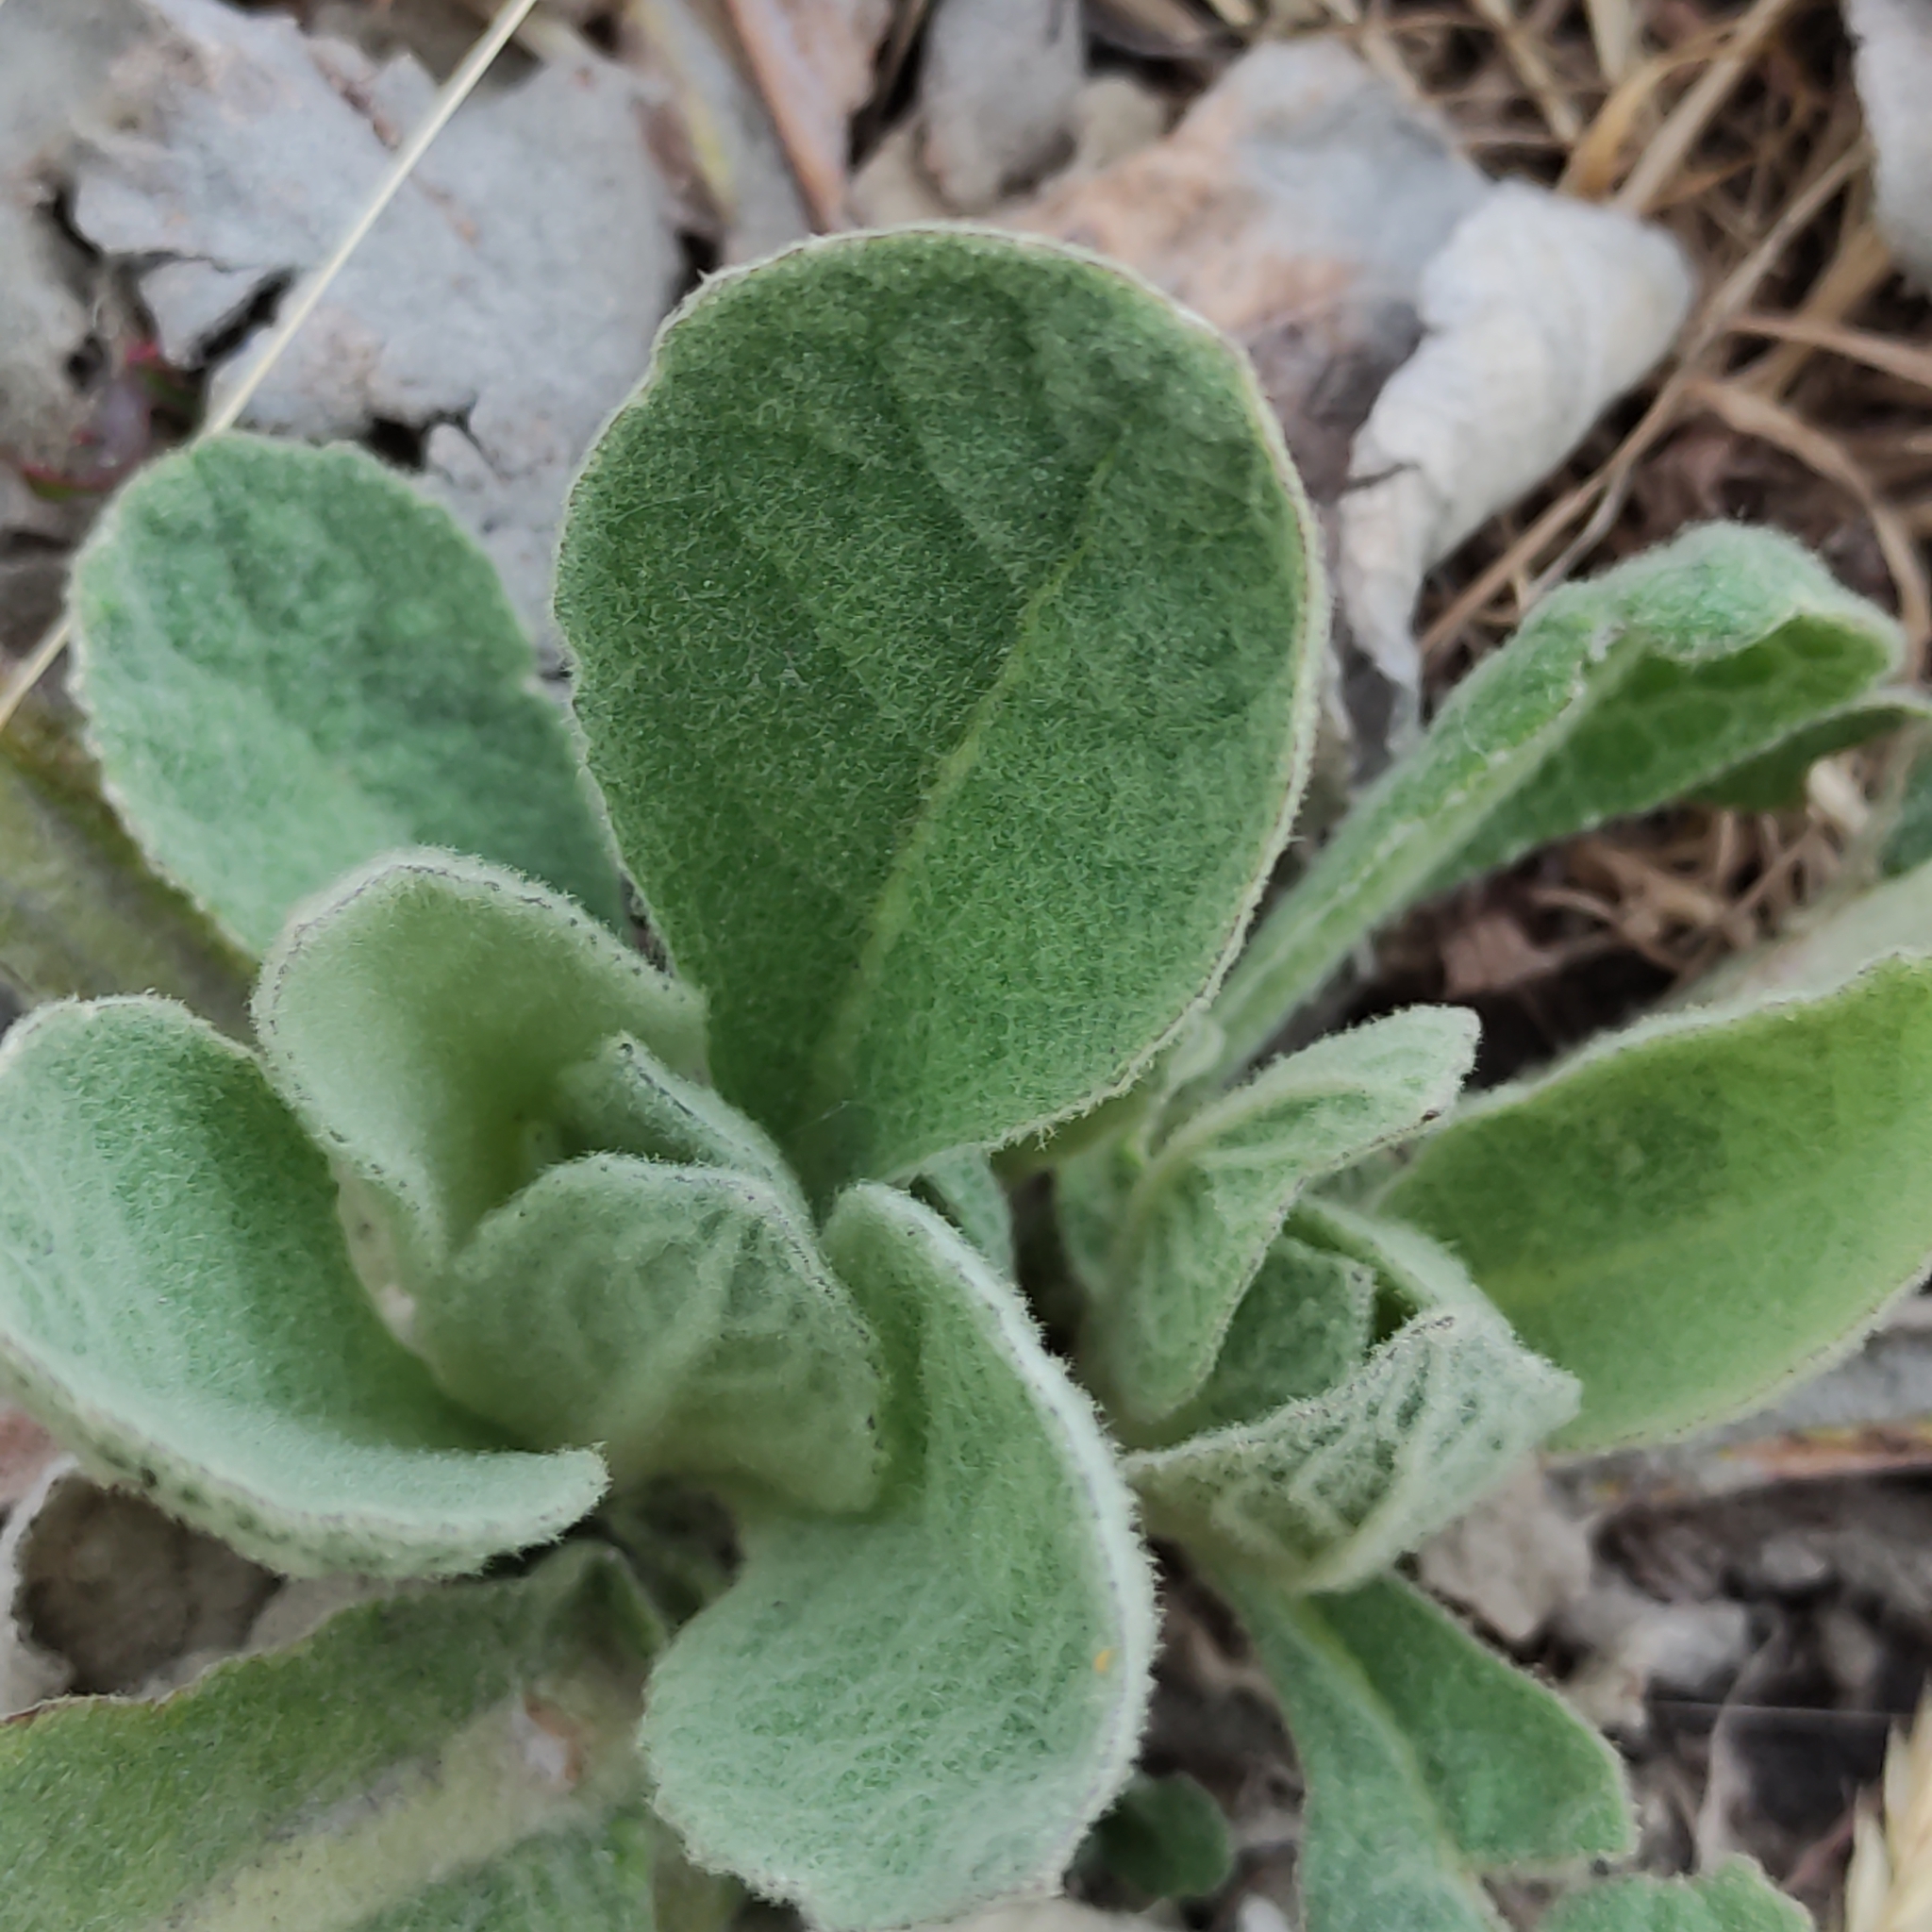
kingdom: Plantae
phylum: Tracheophyta
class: Magnoliopsida
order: Lamiales
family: Scrophulariaceae
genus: Verbascum
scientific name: Verbascum thapsus
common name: Common mullein
